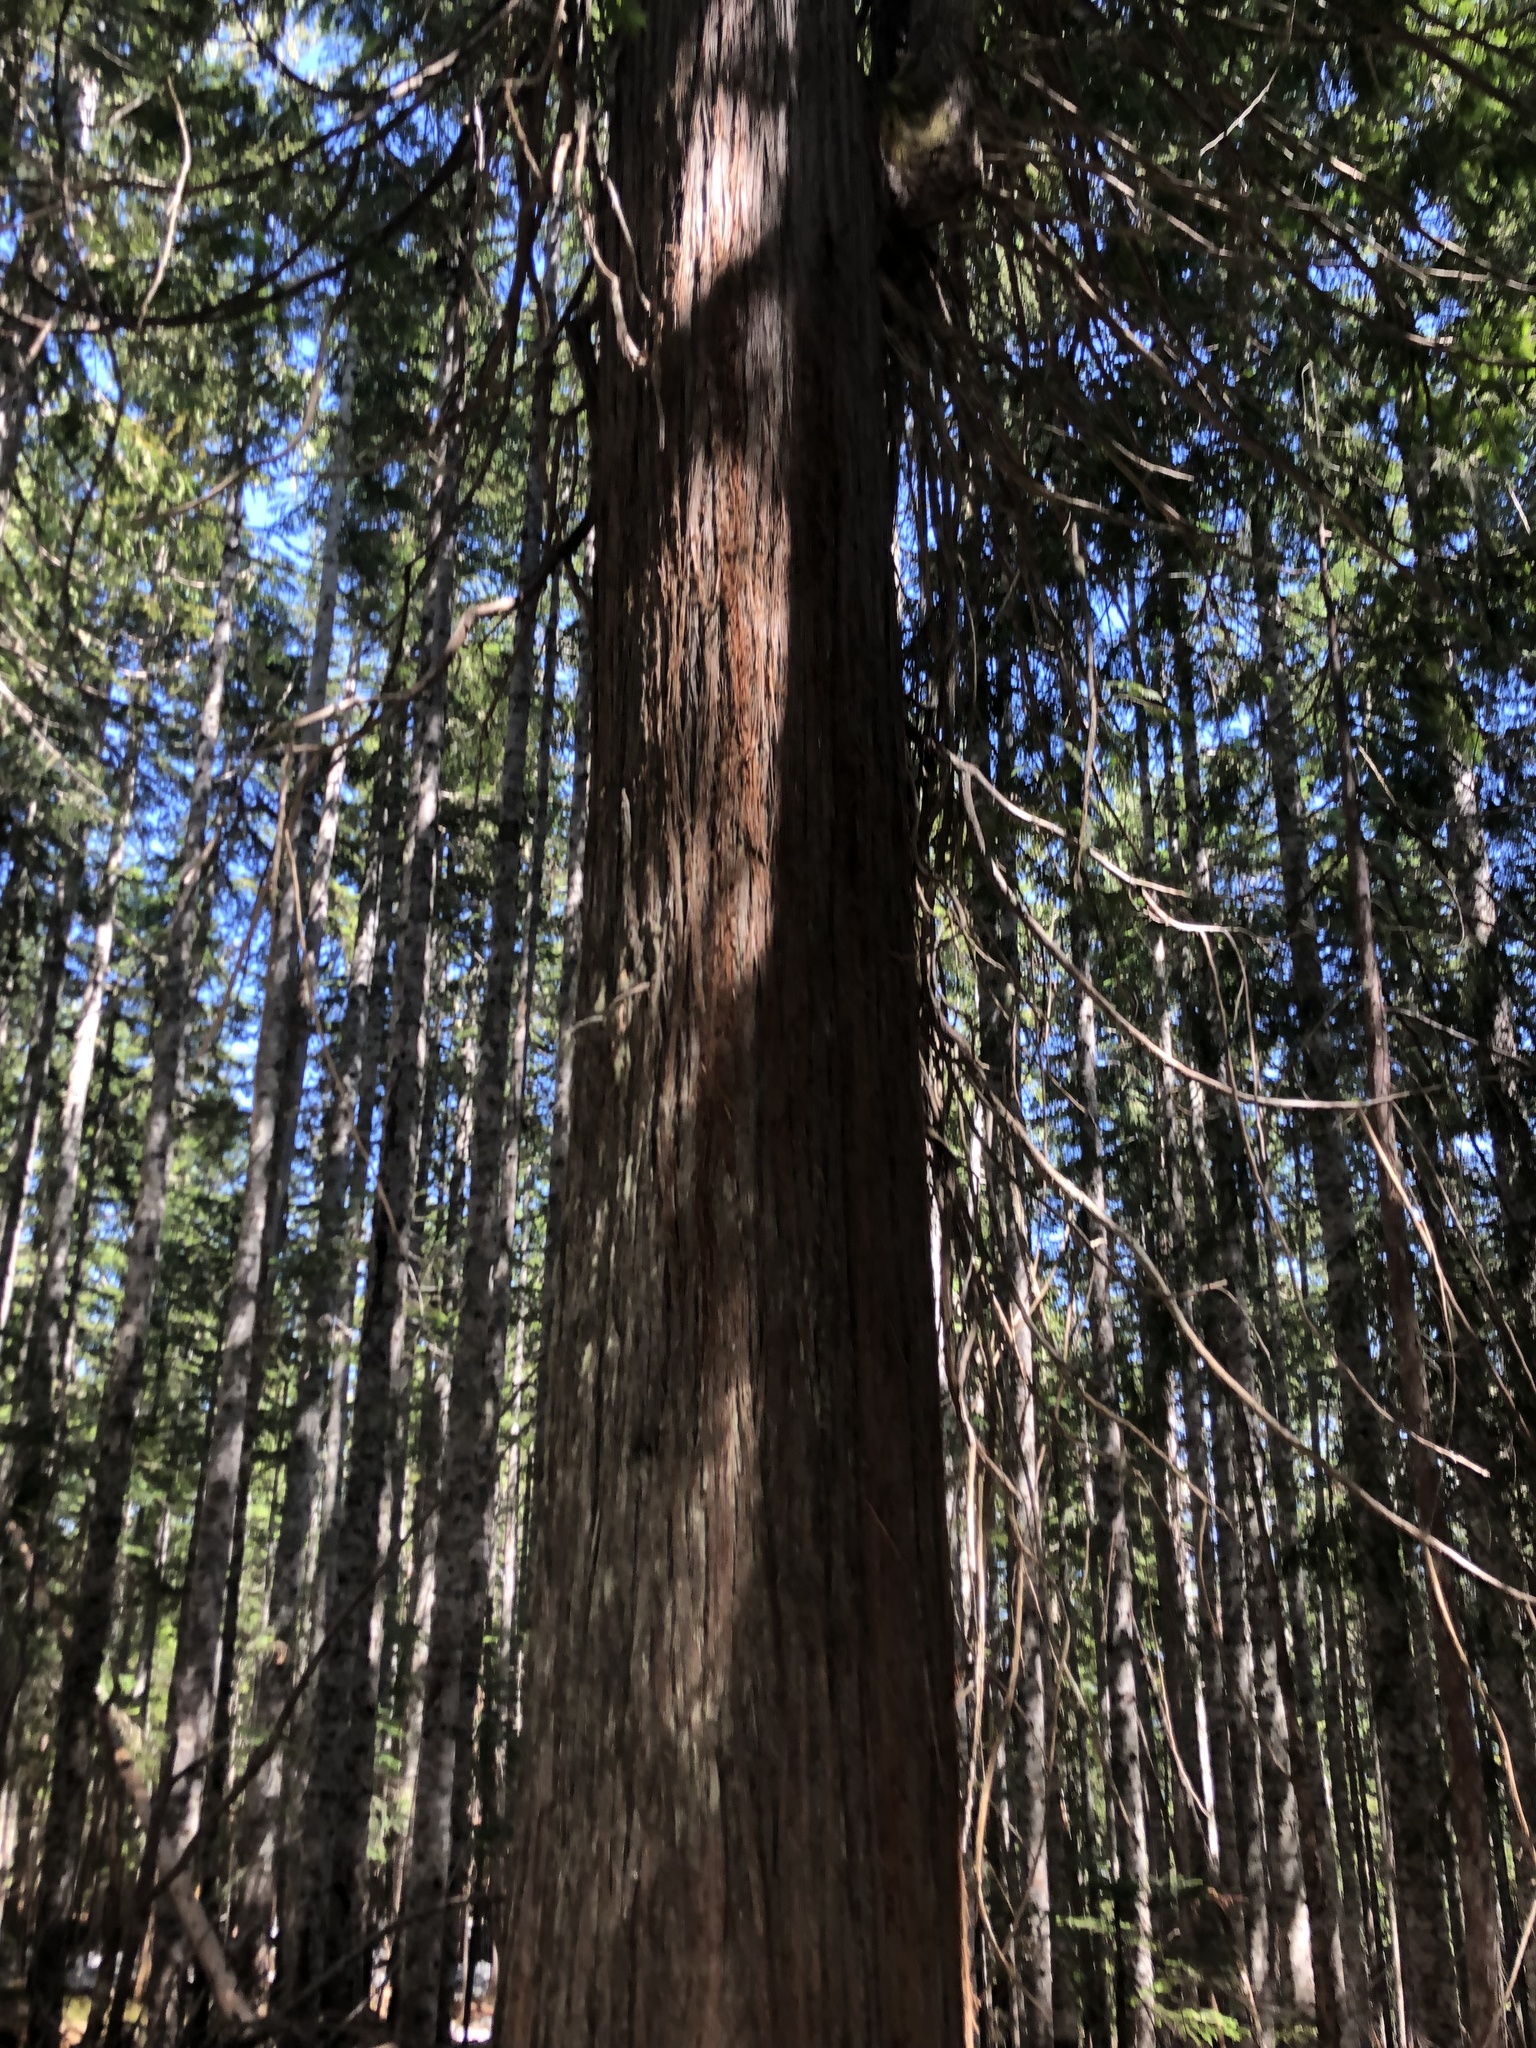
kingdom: Plantae
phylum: Tracheophyta
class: Pinopsida
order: Pinales
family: Cupressaceae
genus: Thuja
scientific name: Thuja plicata
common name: Western red-cedar
